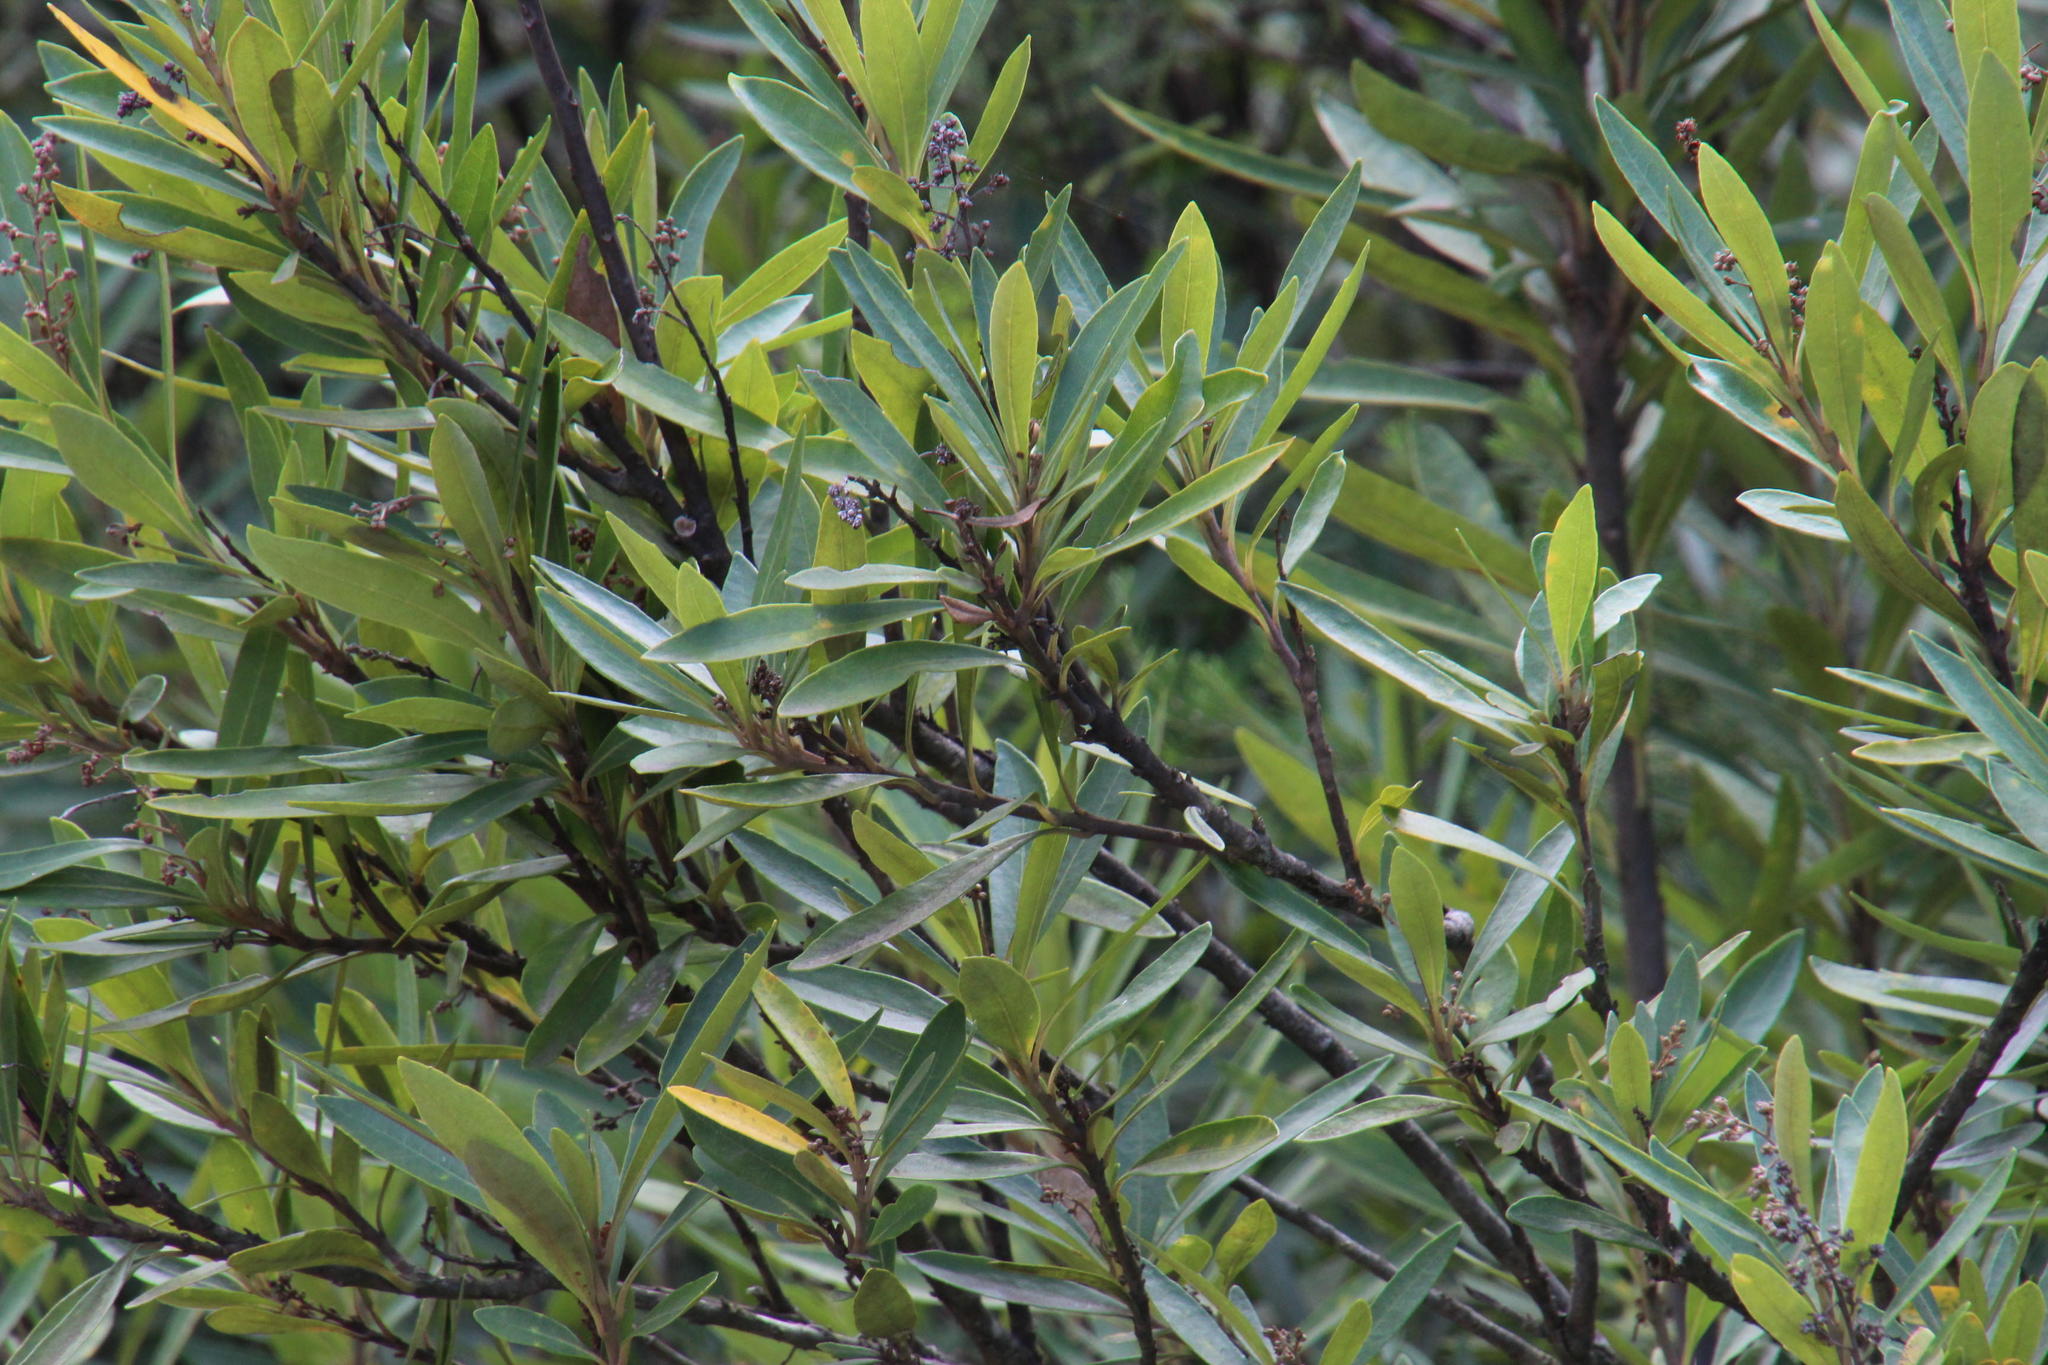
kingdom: Plantae
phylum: Tracheophyta
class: Magnoliopsida
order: Asterales
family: Asteraceae
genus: Brachylaena
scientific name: Brachylaena neriifolia
